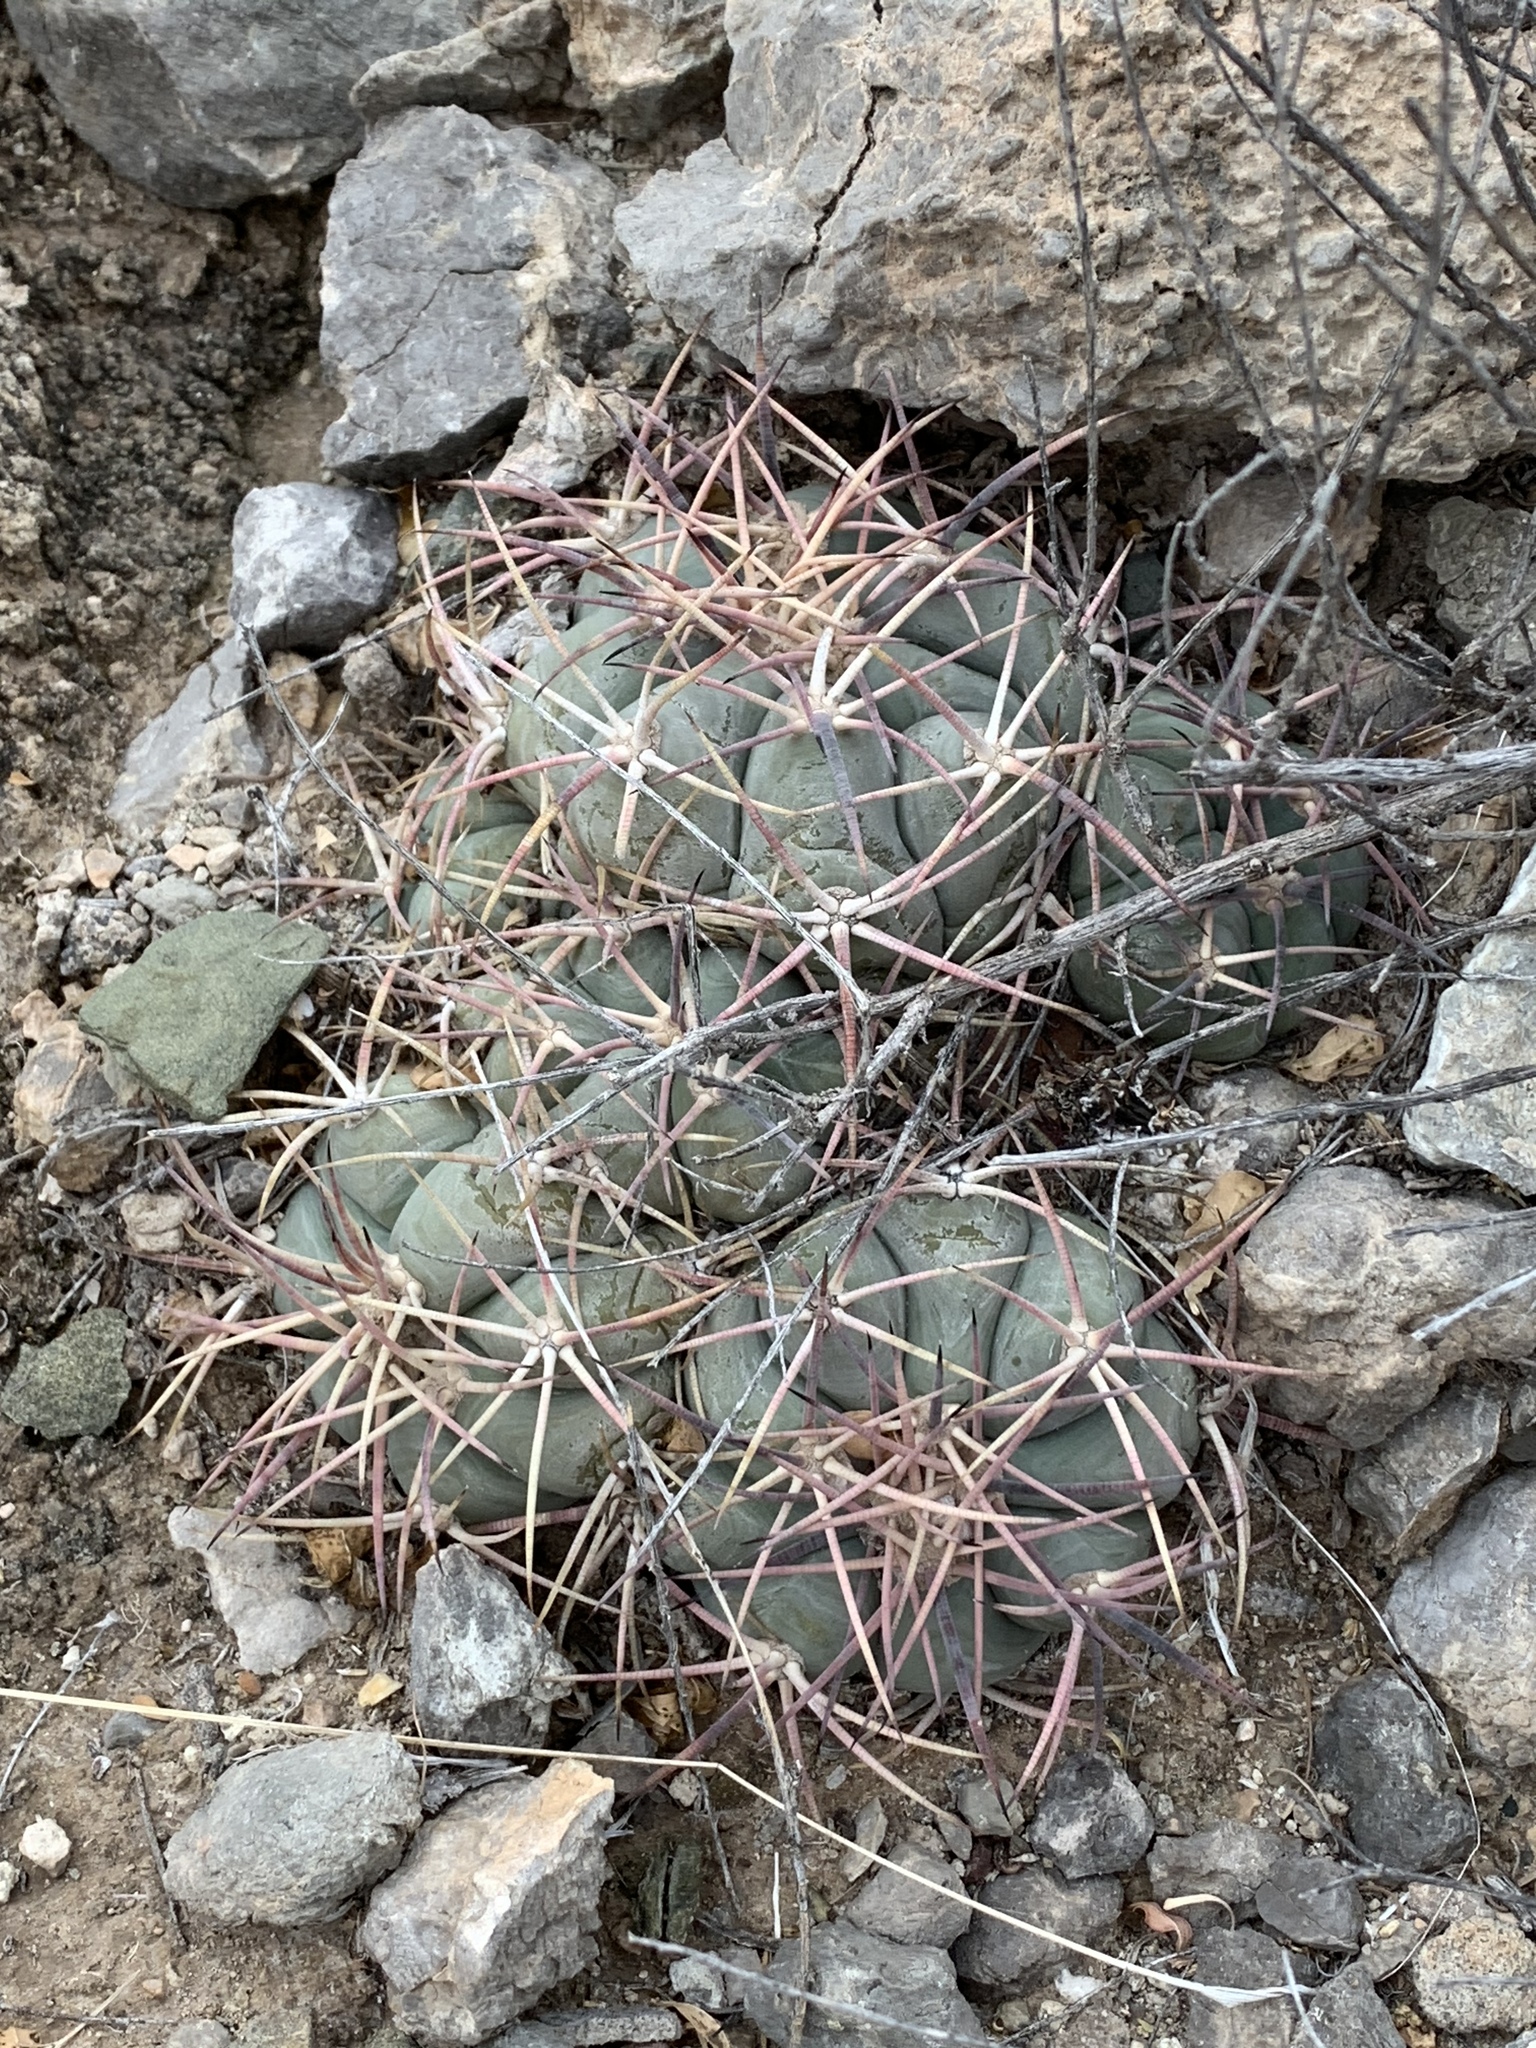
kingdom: Plantae
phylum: Tracheophyta
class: Magnoliopsida
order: Caryophyllales
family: Cactaceae
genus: Echinocactus
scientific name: Echinocactus horizonthalonius
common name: Devilshead
